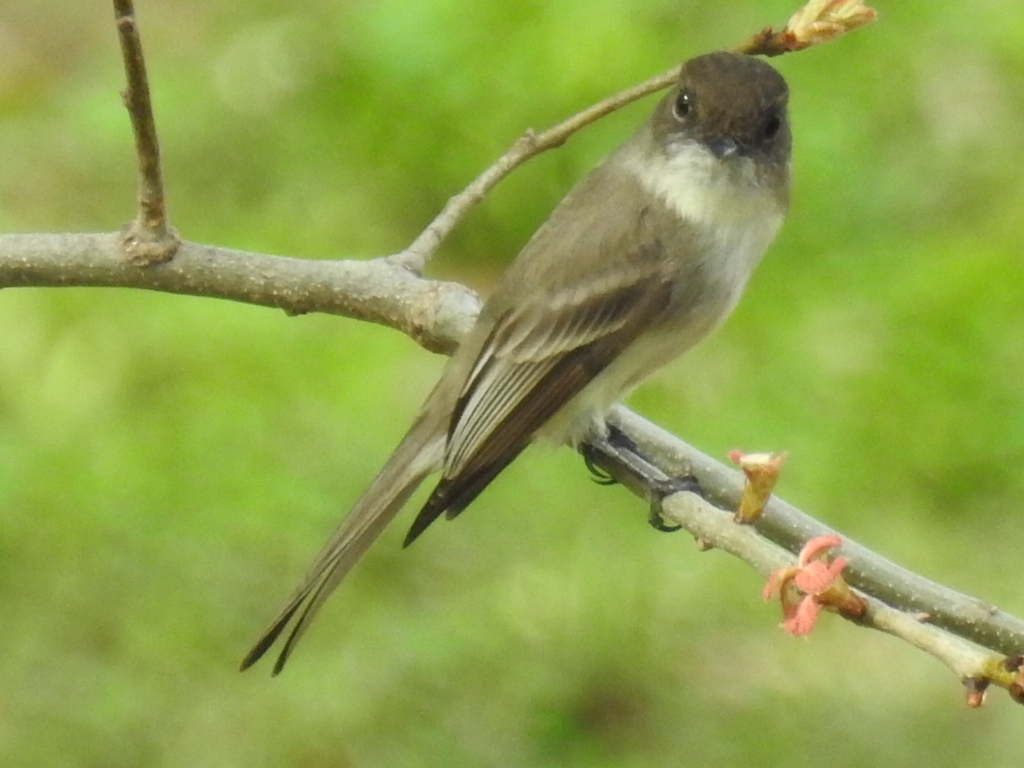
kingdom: Animalia
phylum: Chordata
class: Aves
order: Passeriformes
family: Tyrannidae
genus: Sayornis
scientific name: Sayornis phoebe
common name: Eastern phoebe
